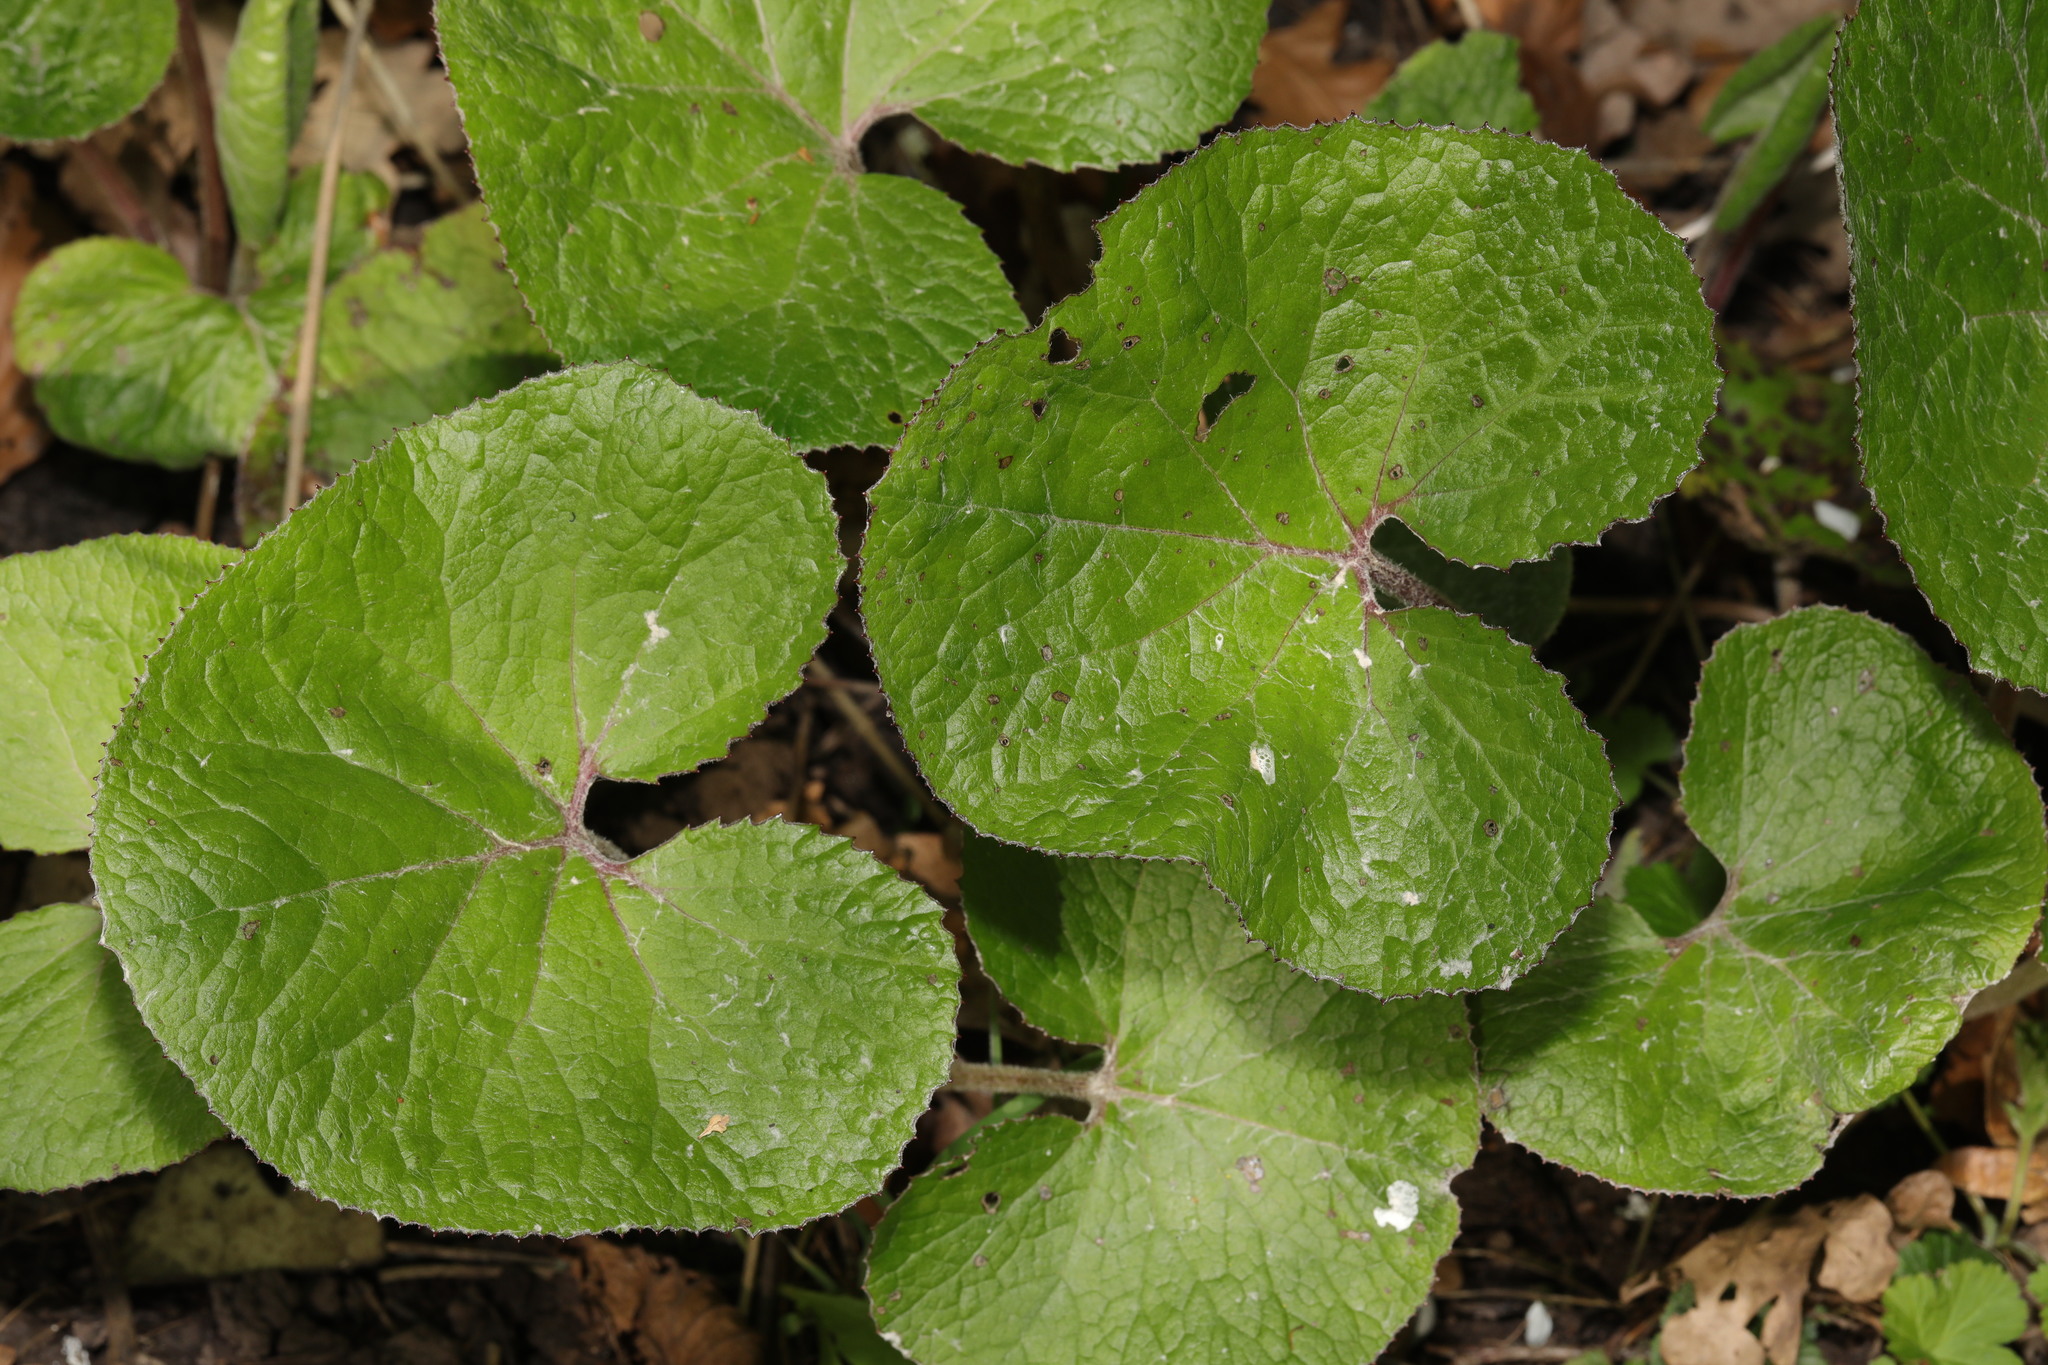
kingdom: Plantae
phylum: Tracheophyta
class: Magnoliopsida
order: Asterales
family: Asteraceae
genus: Petasites
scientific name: Petasites pyrenaicus
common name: Winter heliotrope
